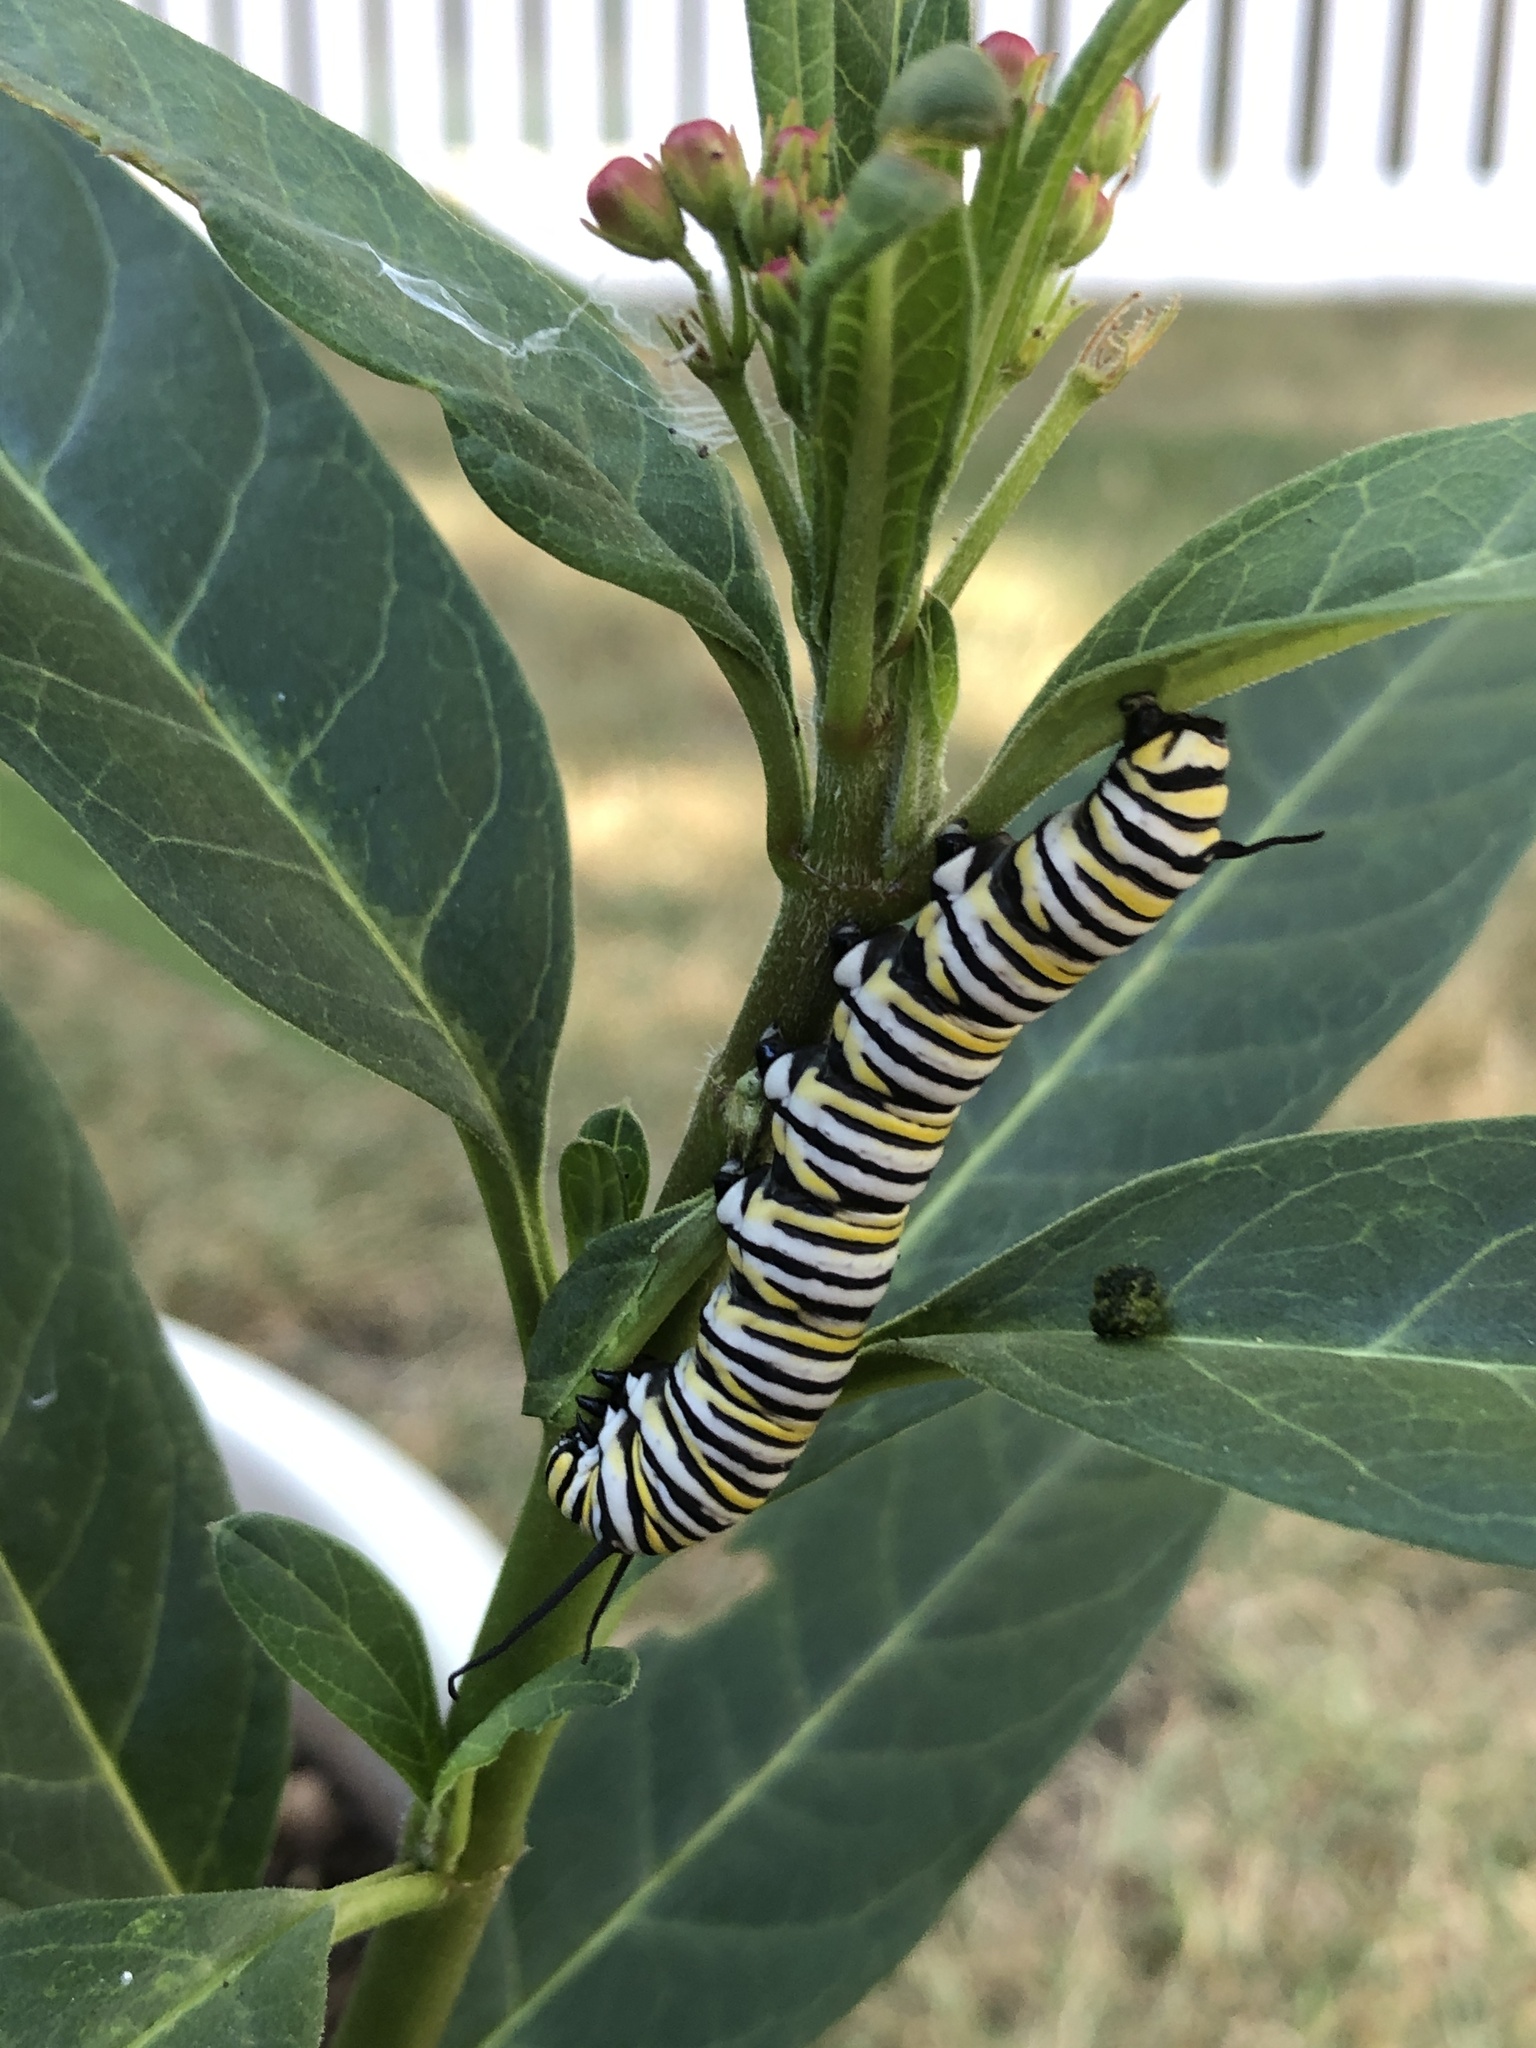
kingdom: Animalia
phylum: Arthropoda
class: Insecta
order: Lepidoptera
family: Nymphalidae
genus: Danaus
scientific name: Danaus plexippus
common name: Monarch
